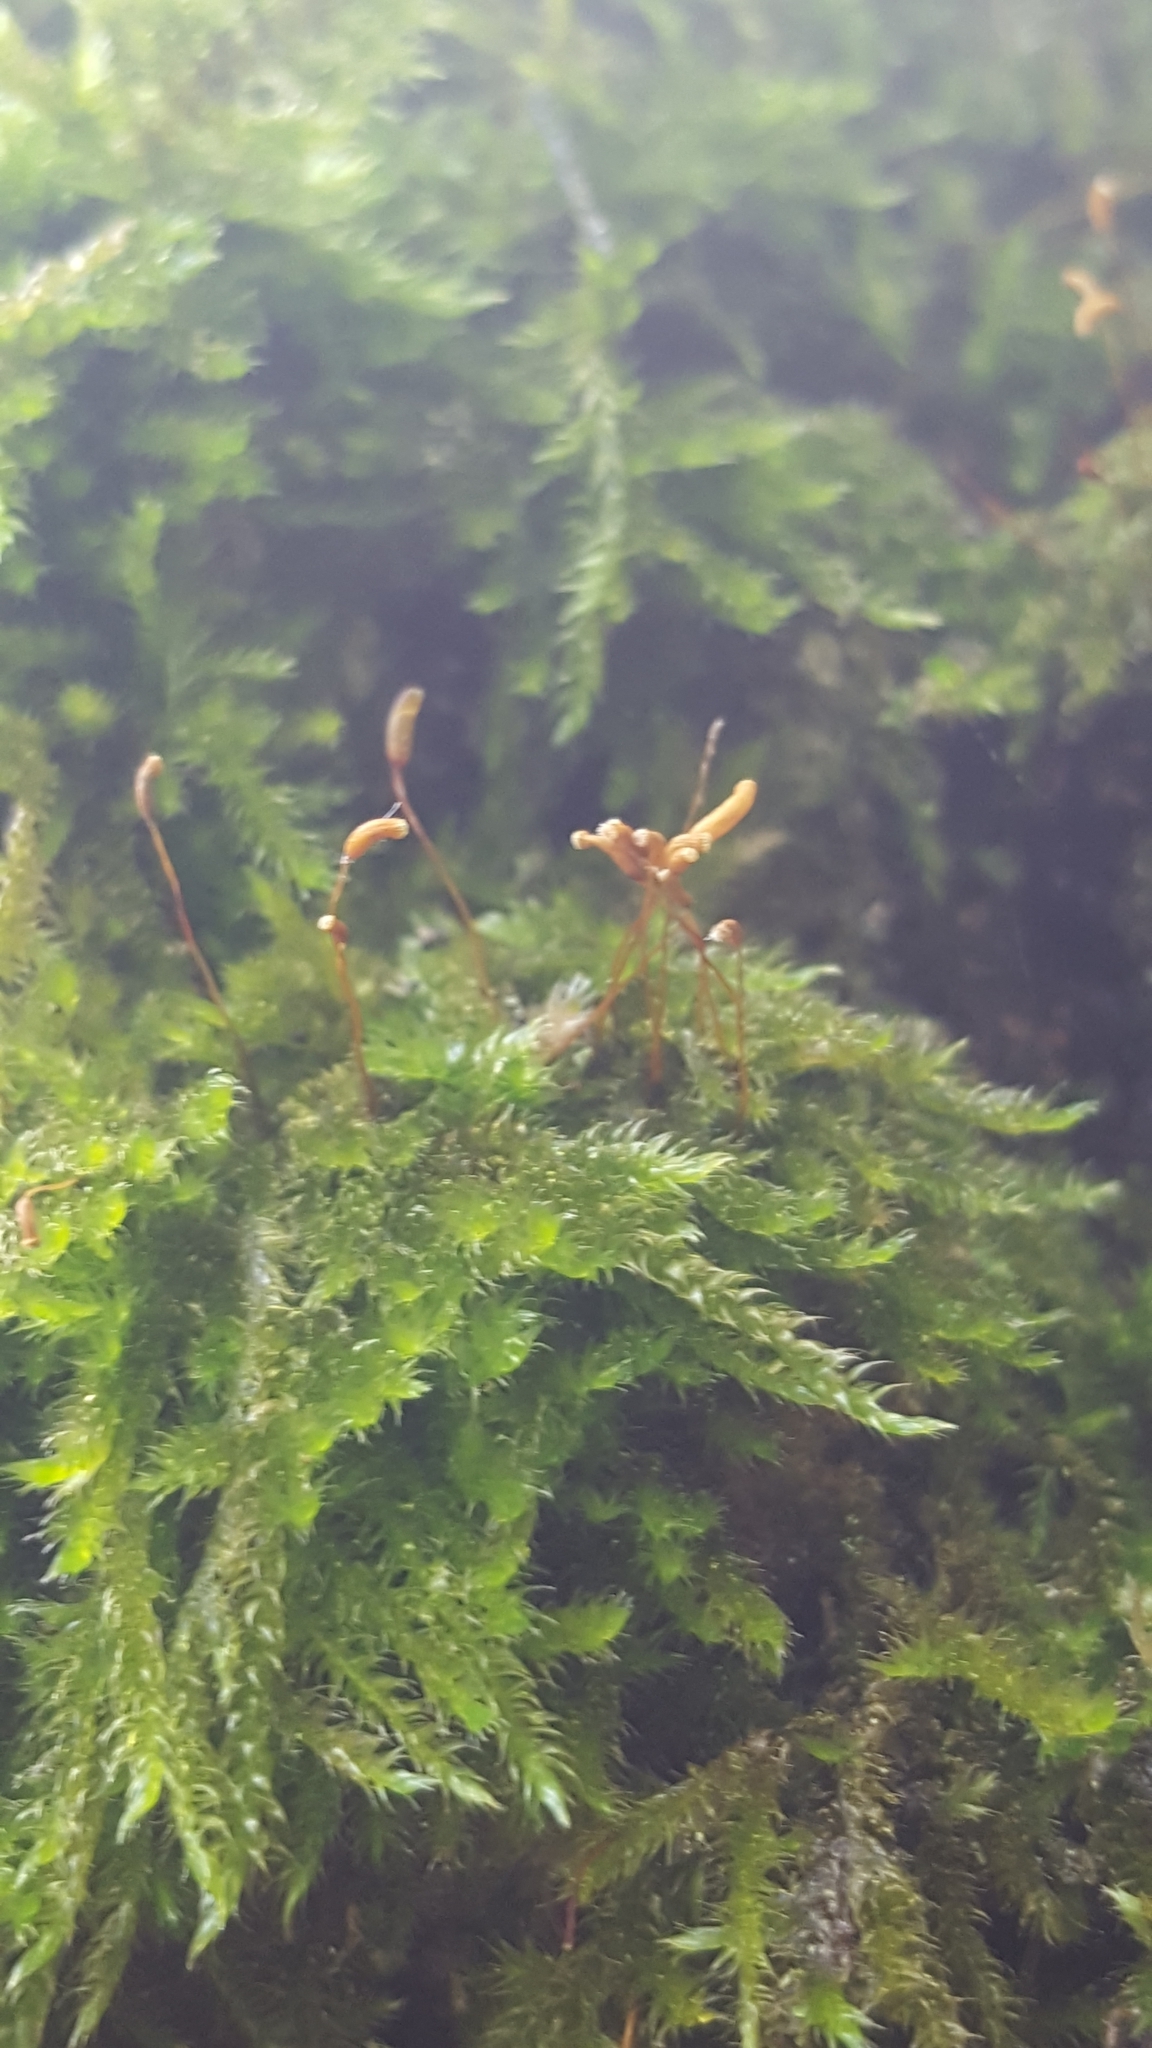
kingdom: Plantae
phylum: Bryophyta
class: Bryopsida
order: Hypnales
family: Hypnaceae
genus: Hypnum
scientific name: Hypnum cupressiforme
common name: Cypress-leaved plait-moss
